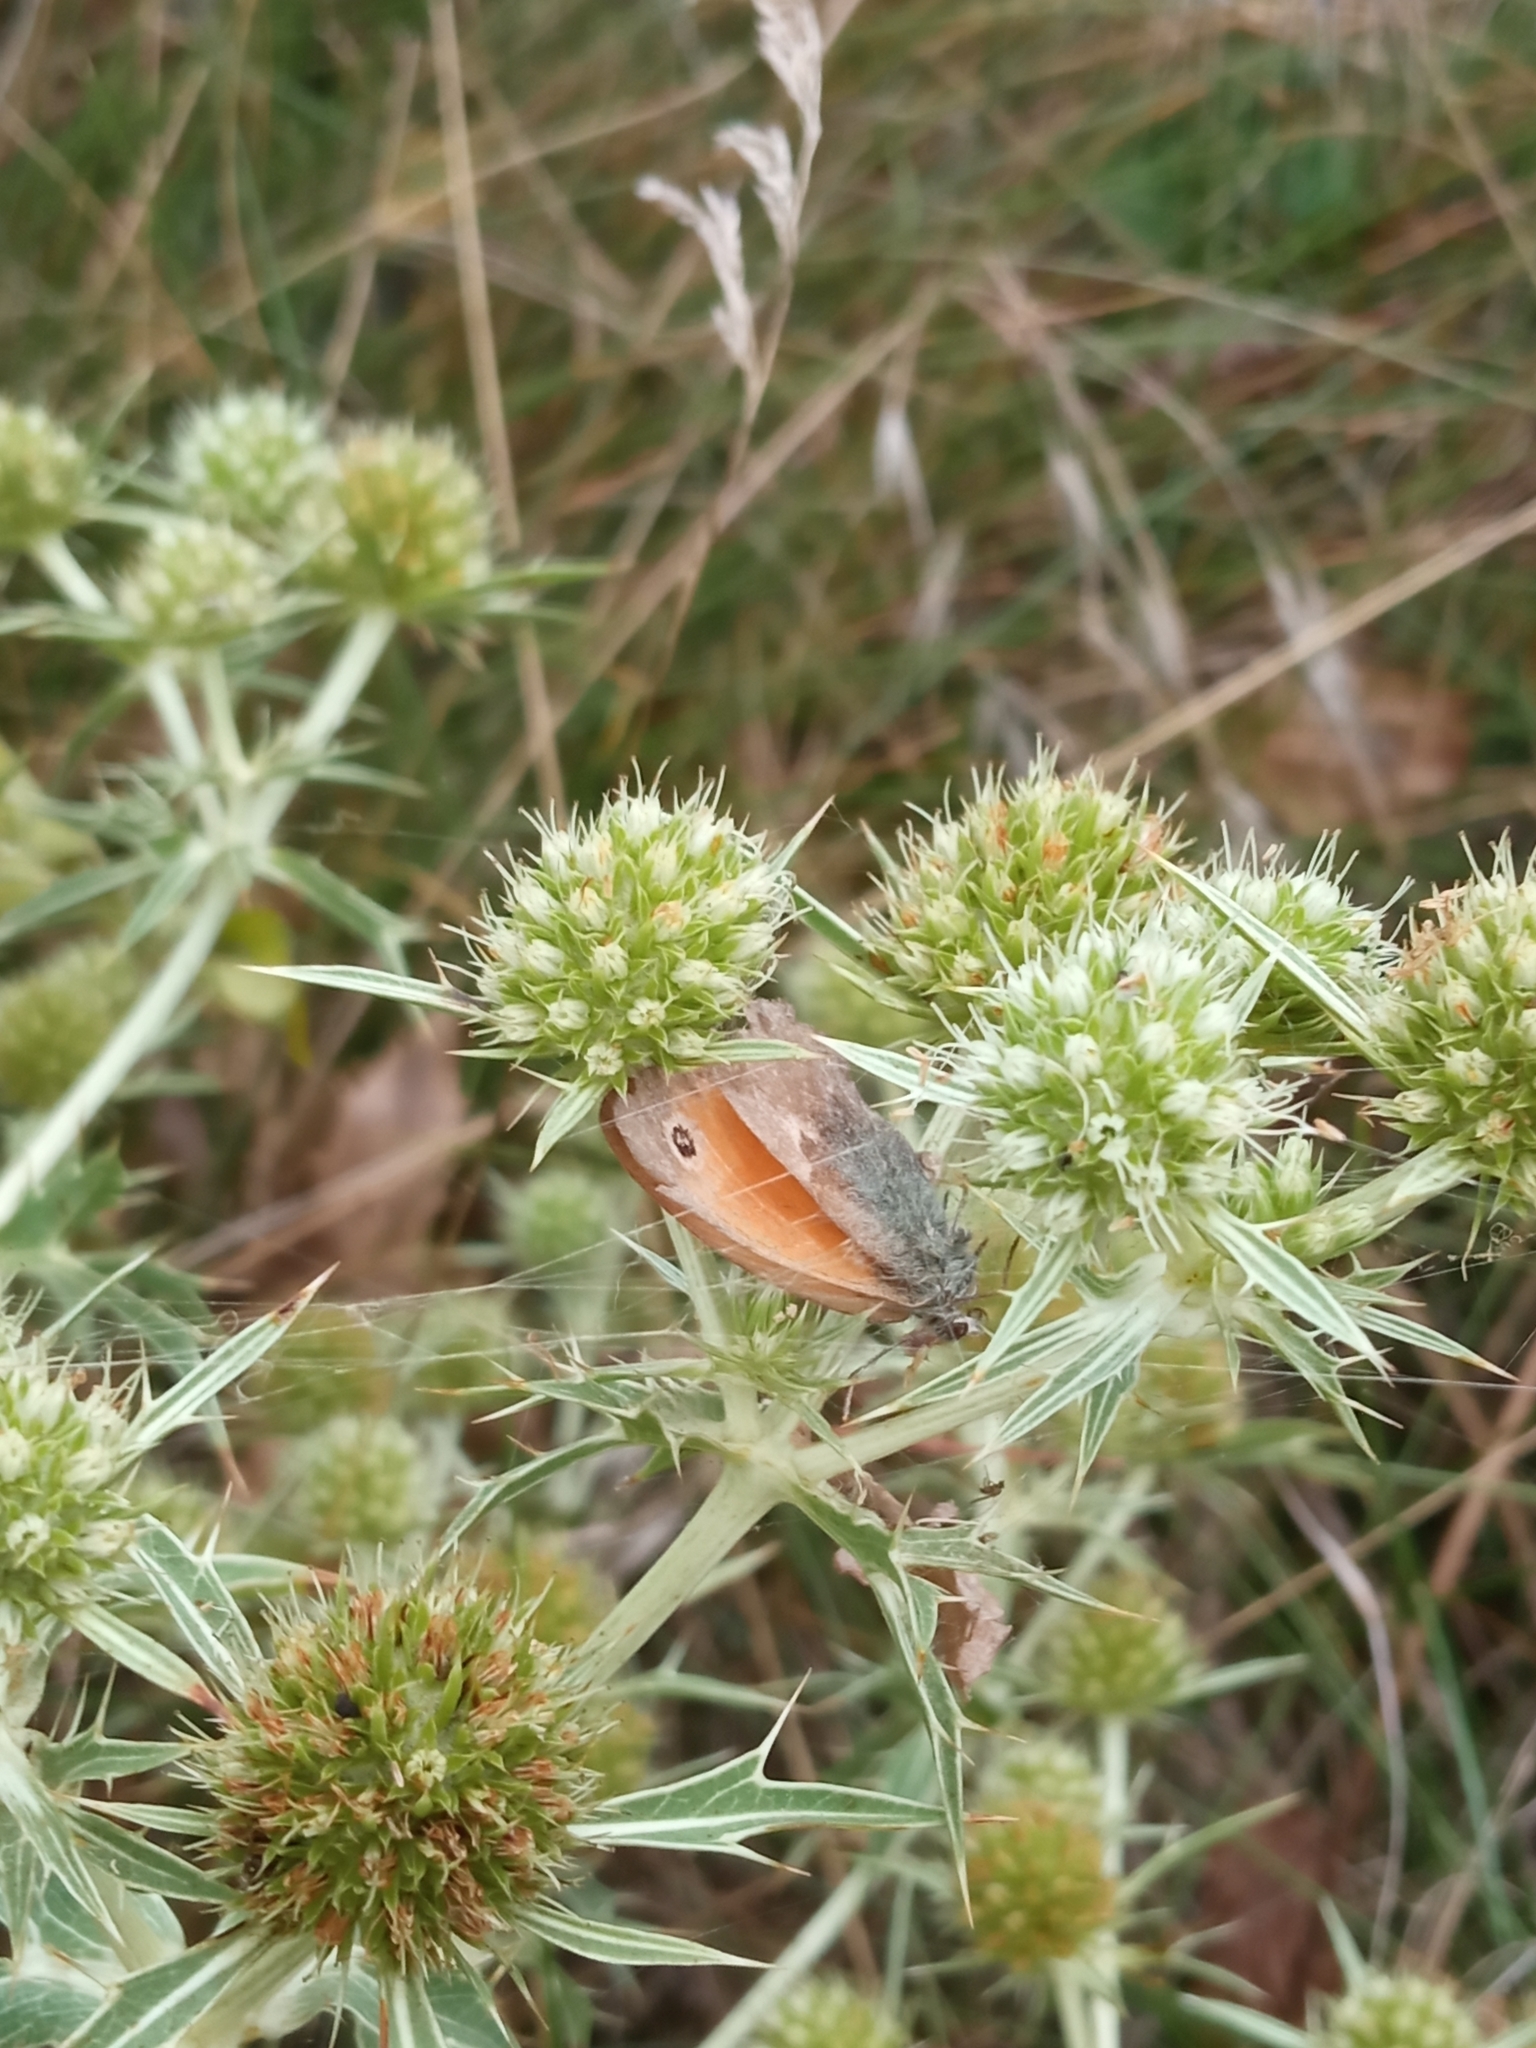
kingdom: Animalia
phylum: Arthropoda
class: Insecta
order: Lepidoptera
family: Nymphalidae
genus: Coenonympha
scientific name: Coenonympha pamphilus
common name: Small heath
